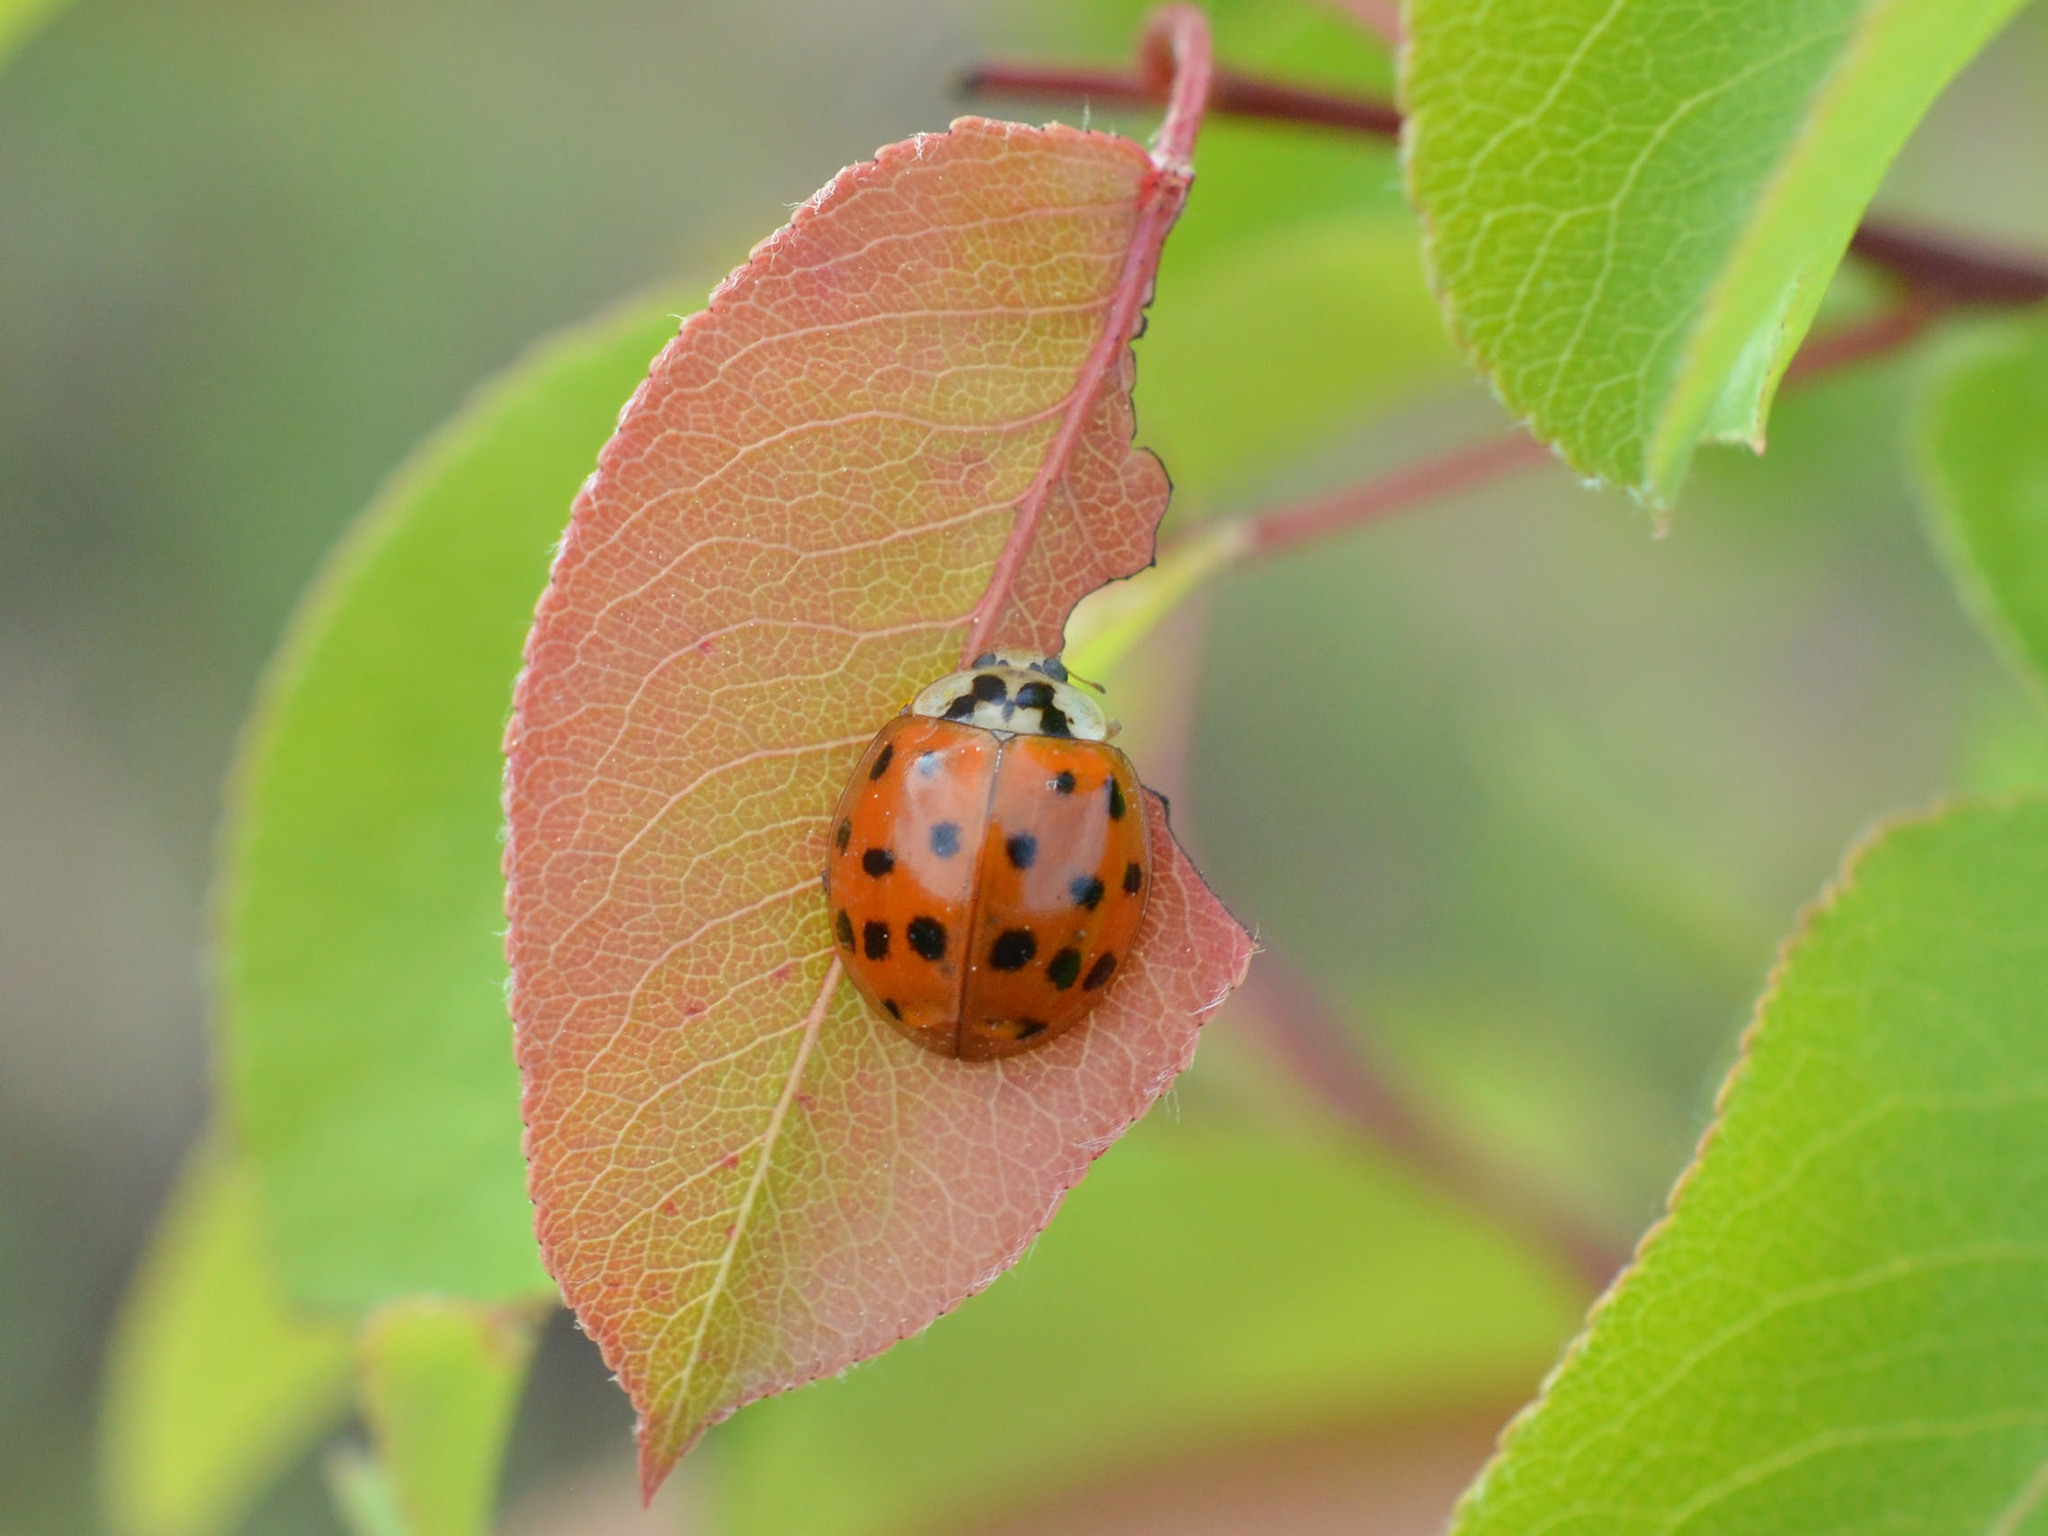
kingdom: Animalia
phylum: Arthropoda
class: Insecta
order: Coleoptera
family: Coccinellidae
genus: Harmonia
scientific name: Harmonia axyridis
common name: Harlequin ladybird
